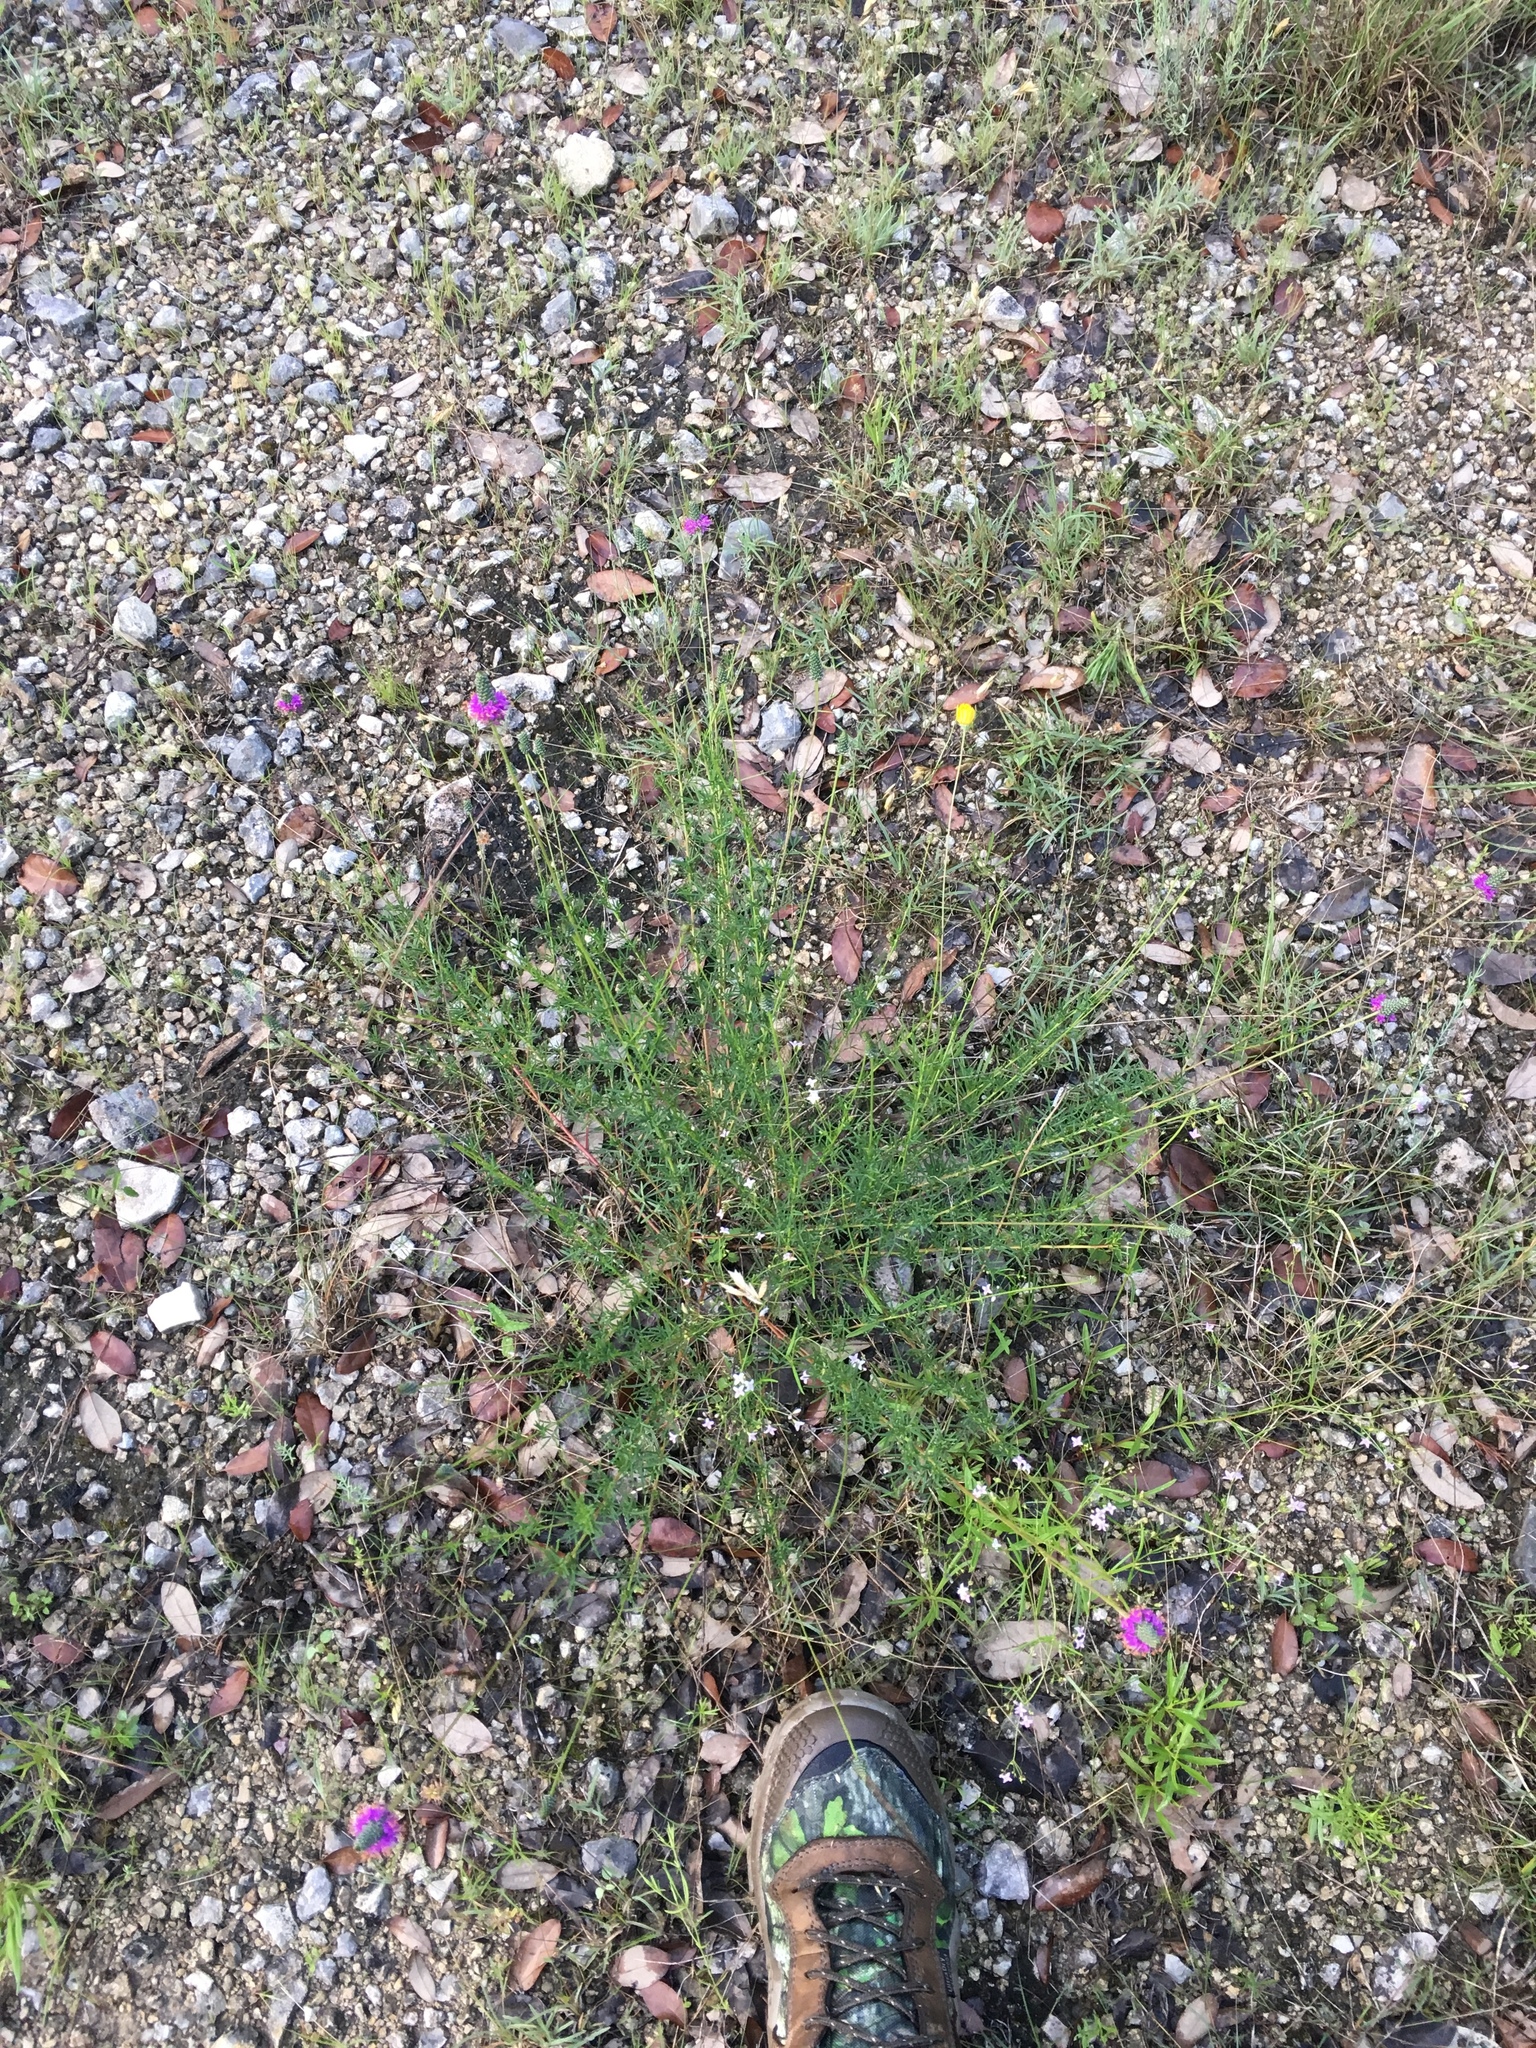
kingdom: Plantae
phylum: Tracheophyta
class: Magnoliopsida
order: Fabales
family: Fabaceae
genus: Dalea
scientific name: Dalea tenuis
